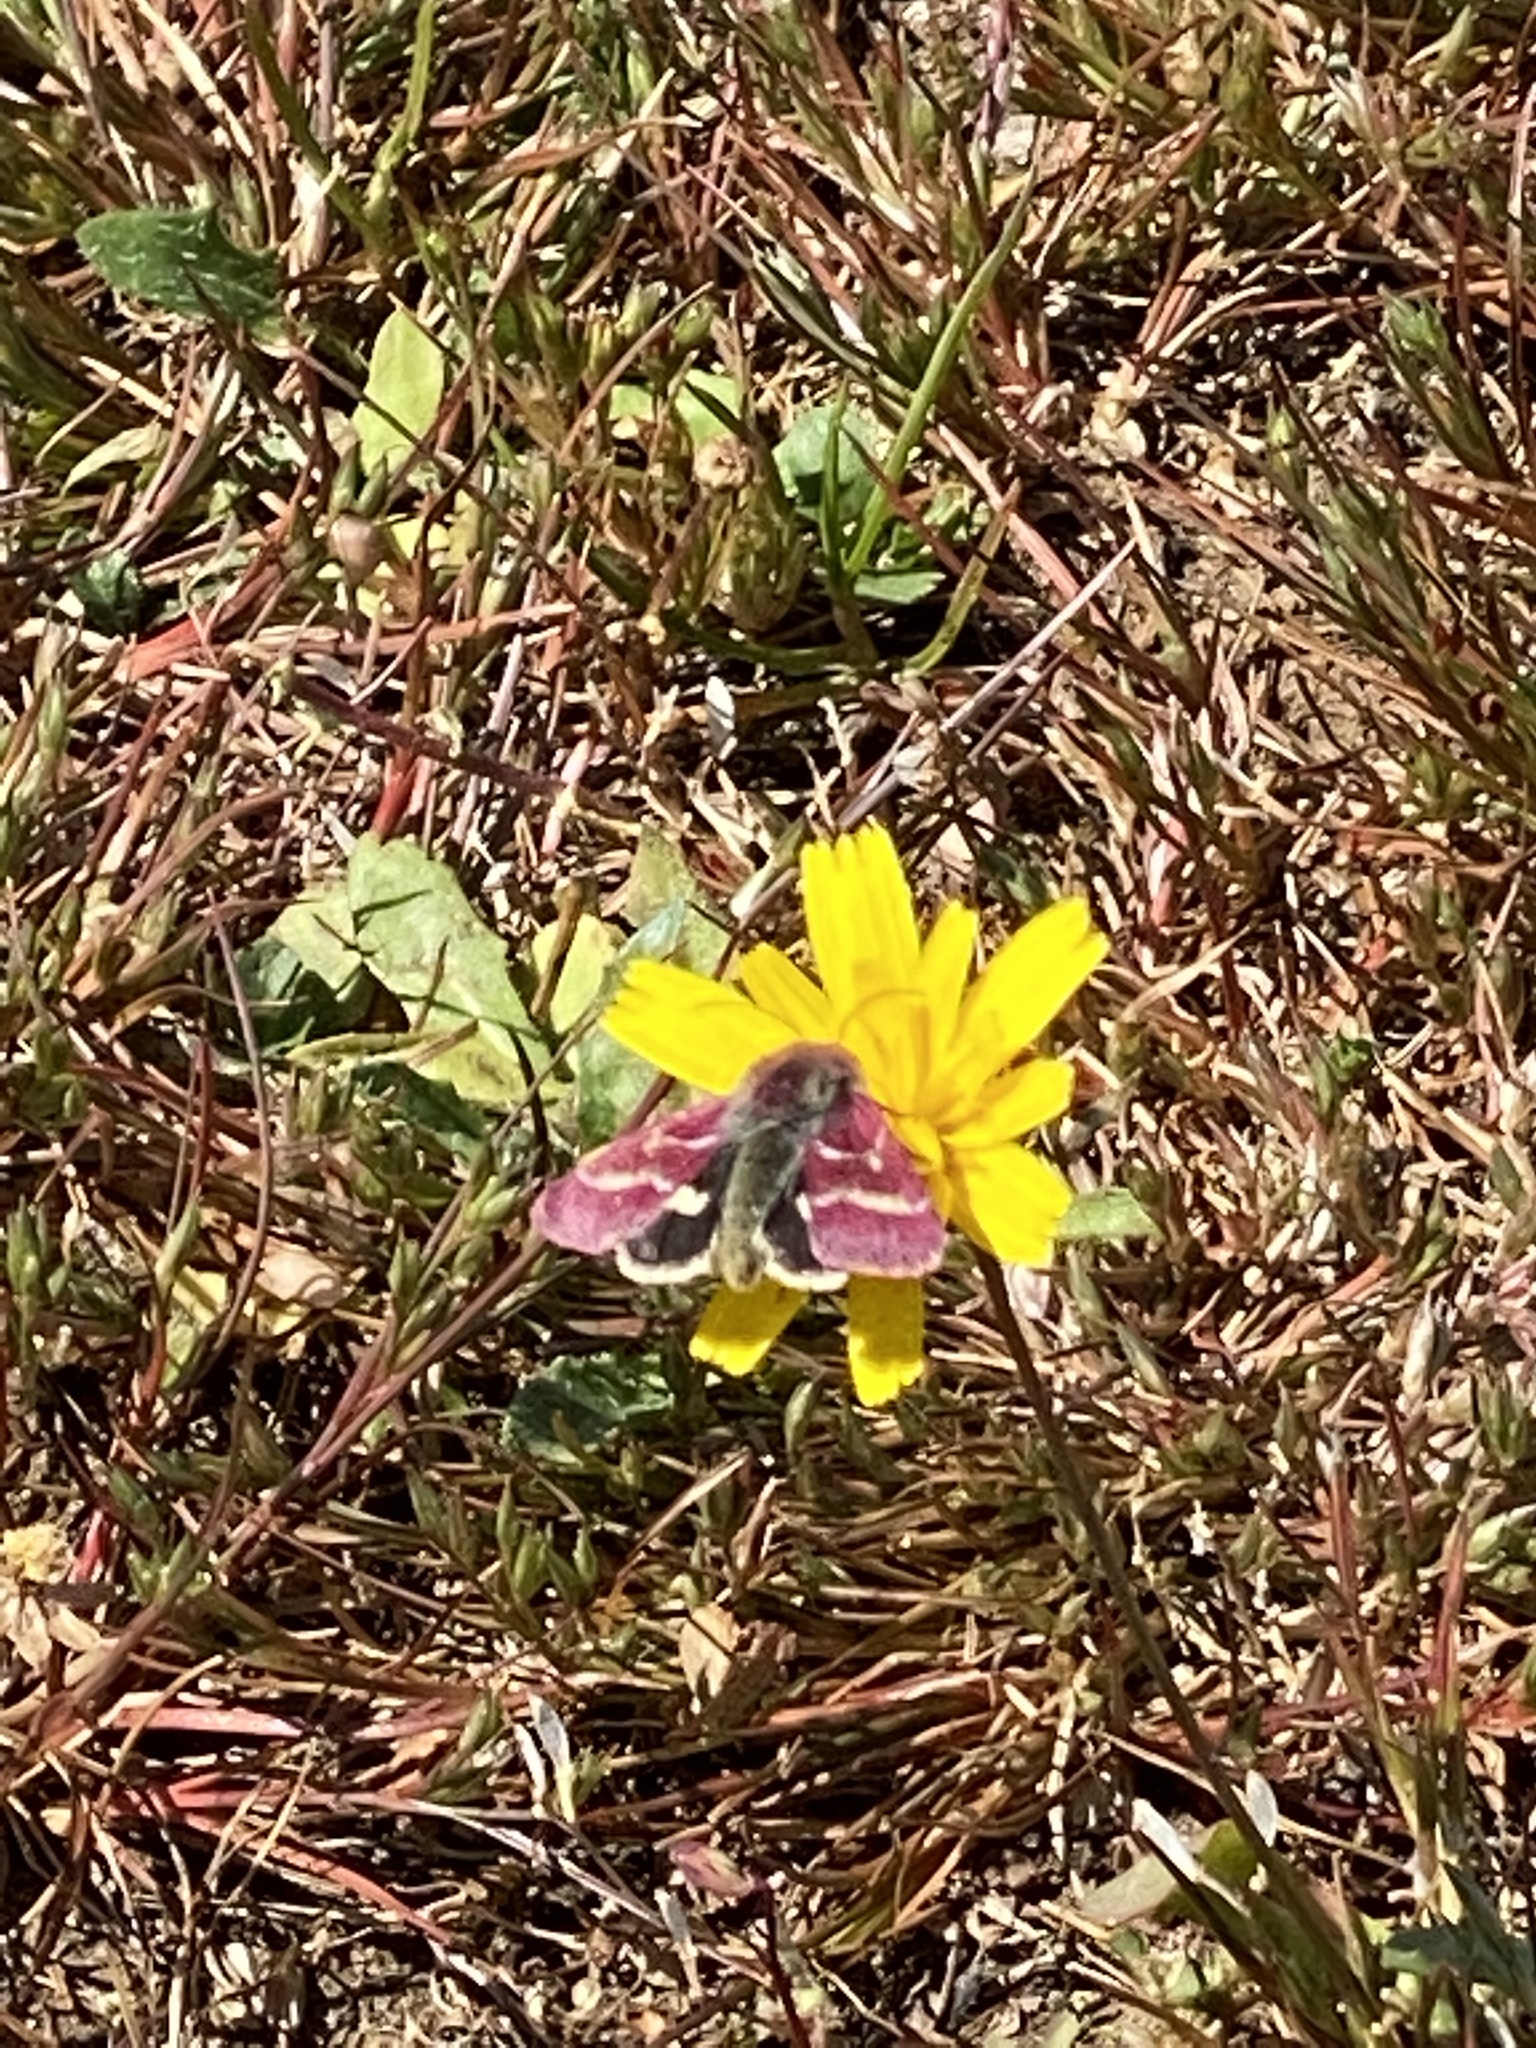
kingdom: Animalia
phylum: Arthropoda
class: Insecta
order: Lepidoptera
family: Noctuidae
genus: Schinia
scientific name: Schinia pulchripennis
